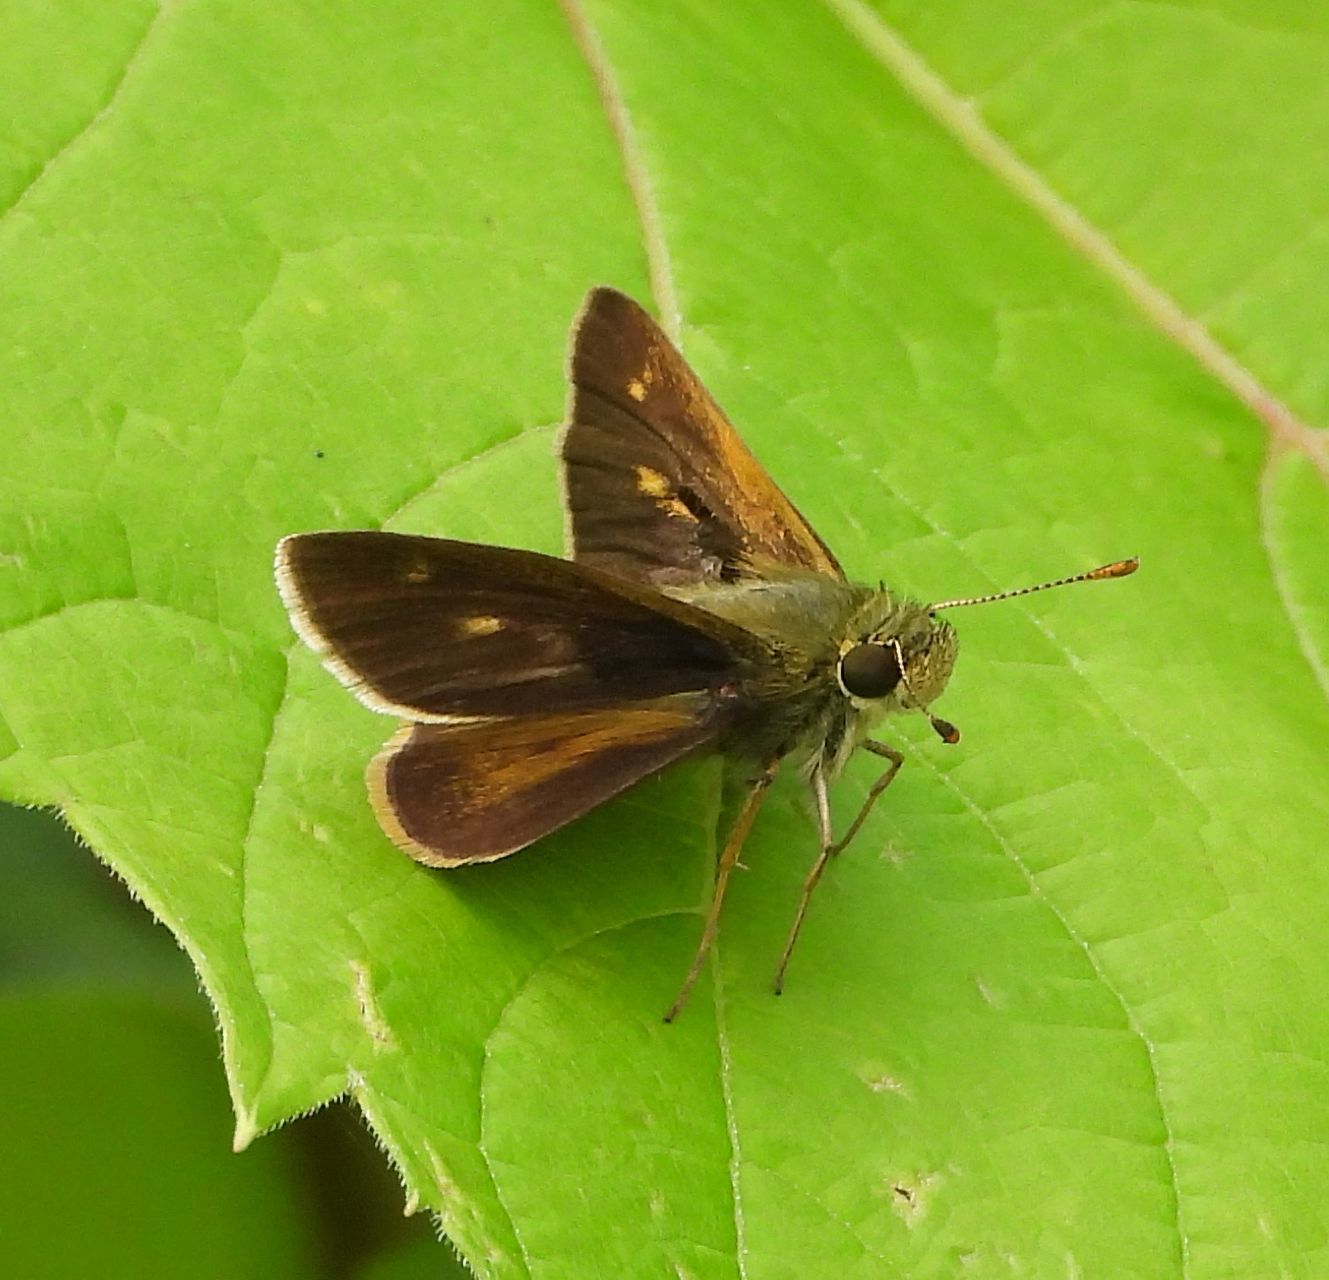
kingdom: Animalia
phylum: Arthropoda
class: Insecta
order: Lepidoptera
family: Hesperiidae
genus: Polites
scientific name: Polites egeremet
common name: Northern broken-dash
